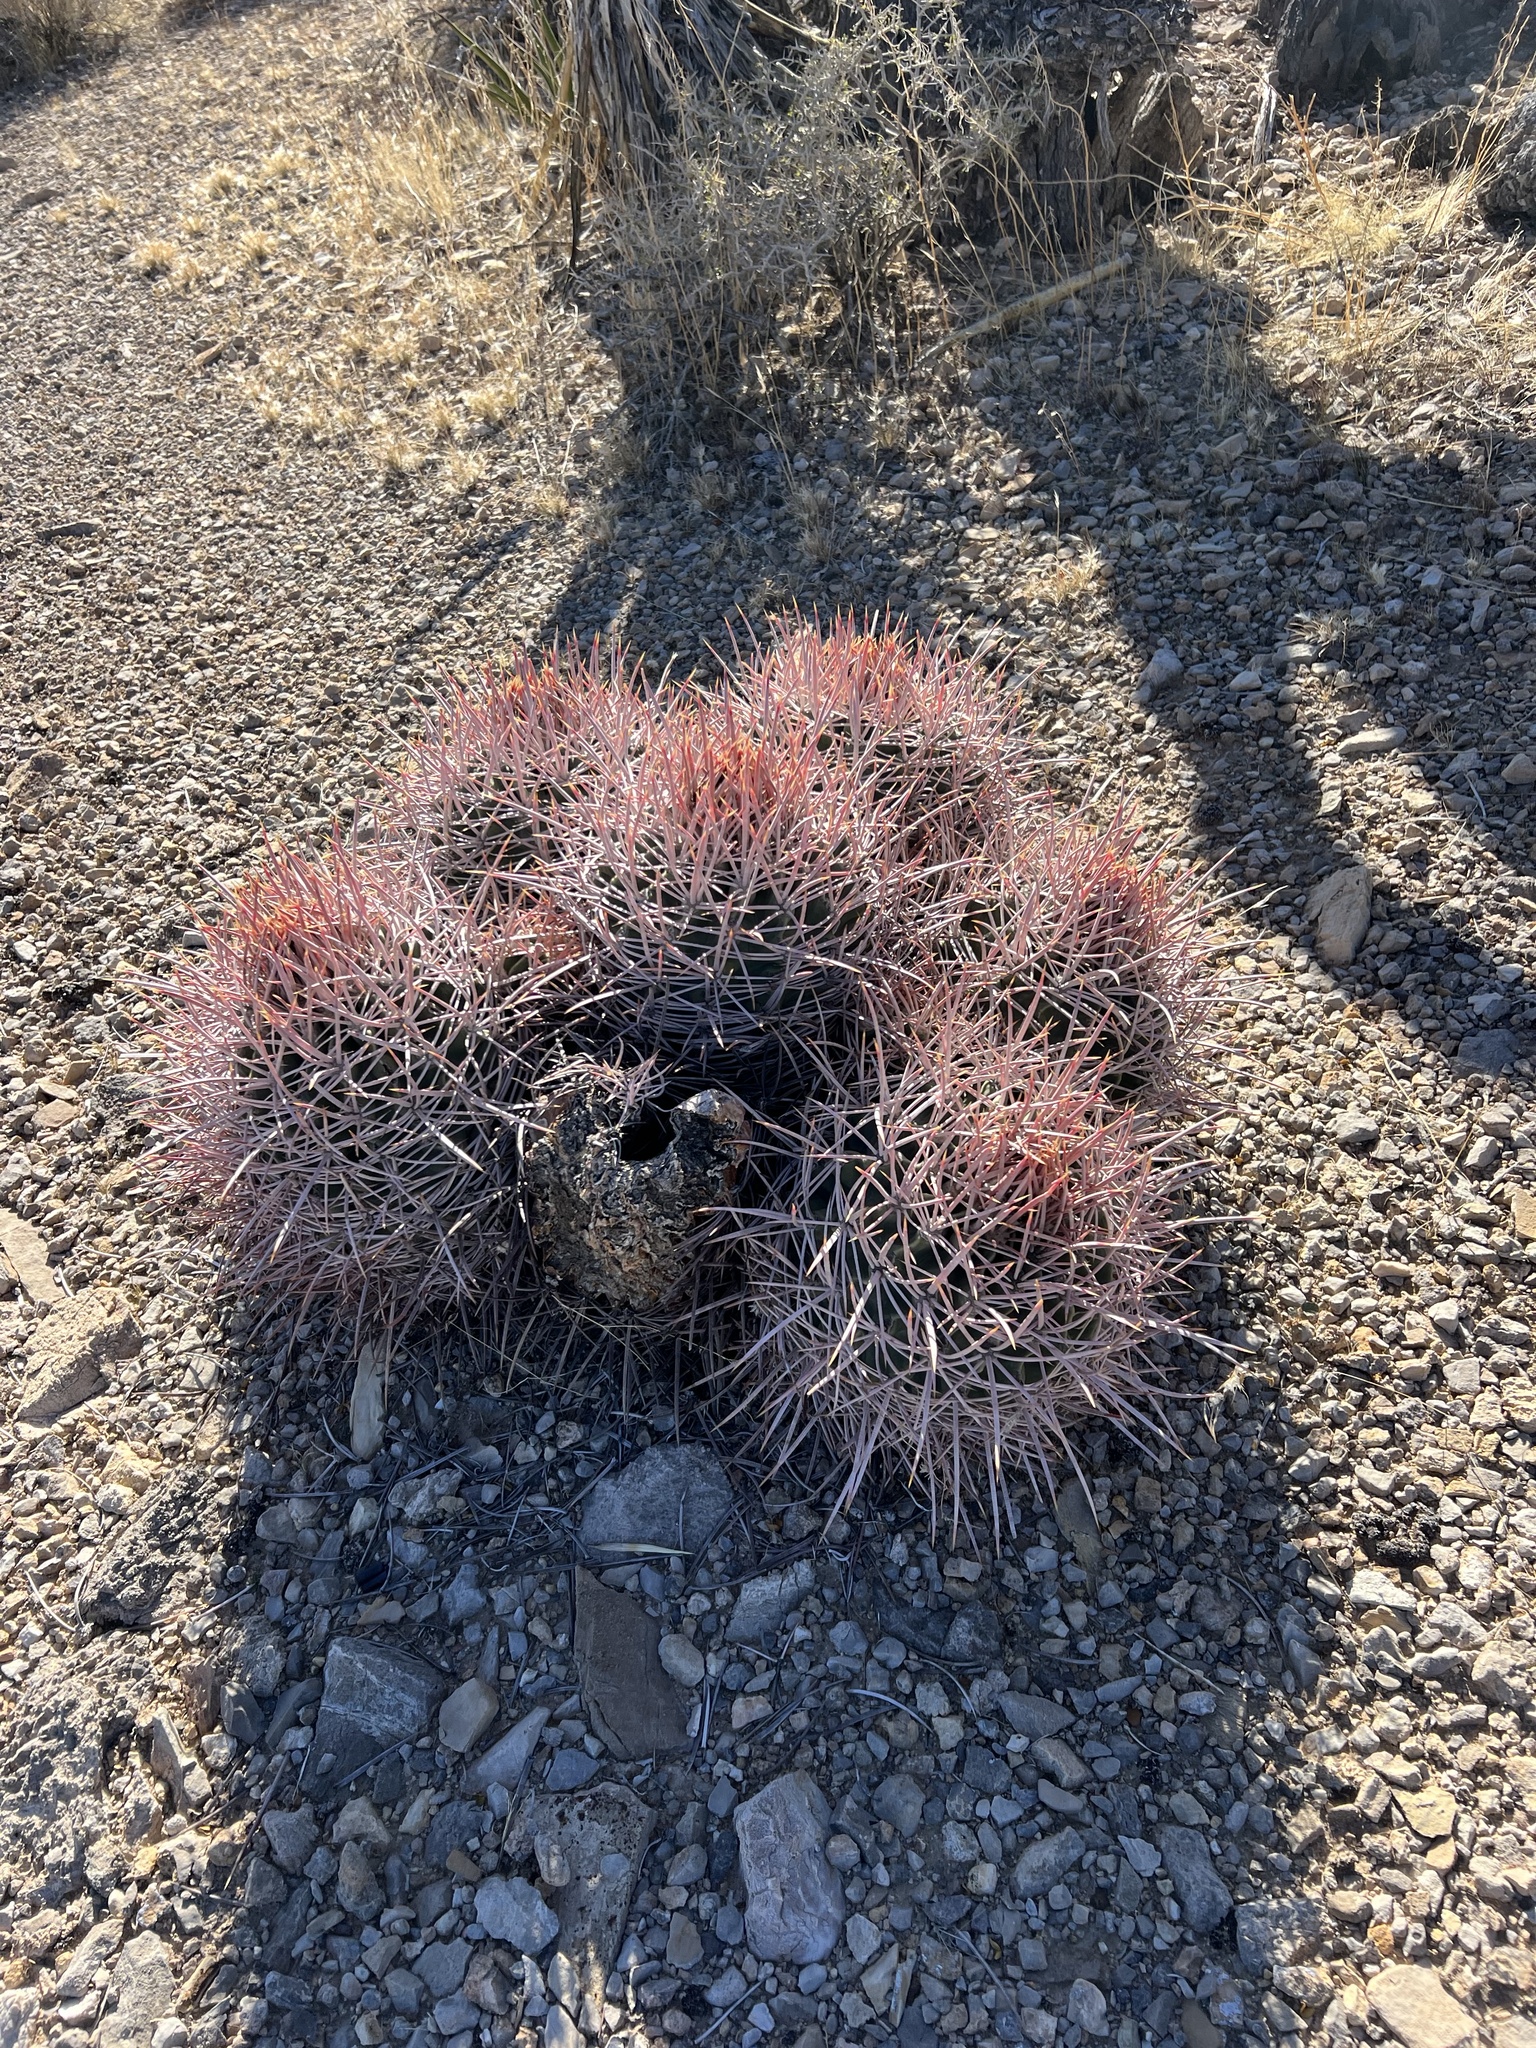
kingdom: Plantae
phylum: Tracheophyta
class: Magnoliopsida
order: Caryophyllales
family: Cactaceae
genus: Echinocactus
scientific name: Echinocactus polycephalus
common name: Cottontop cactus
